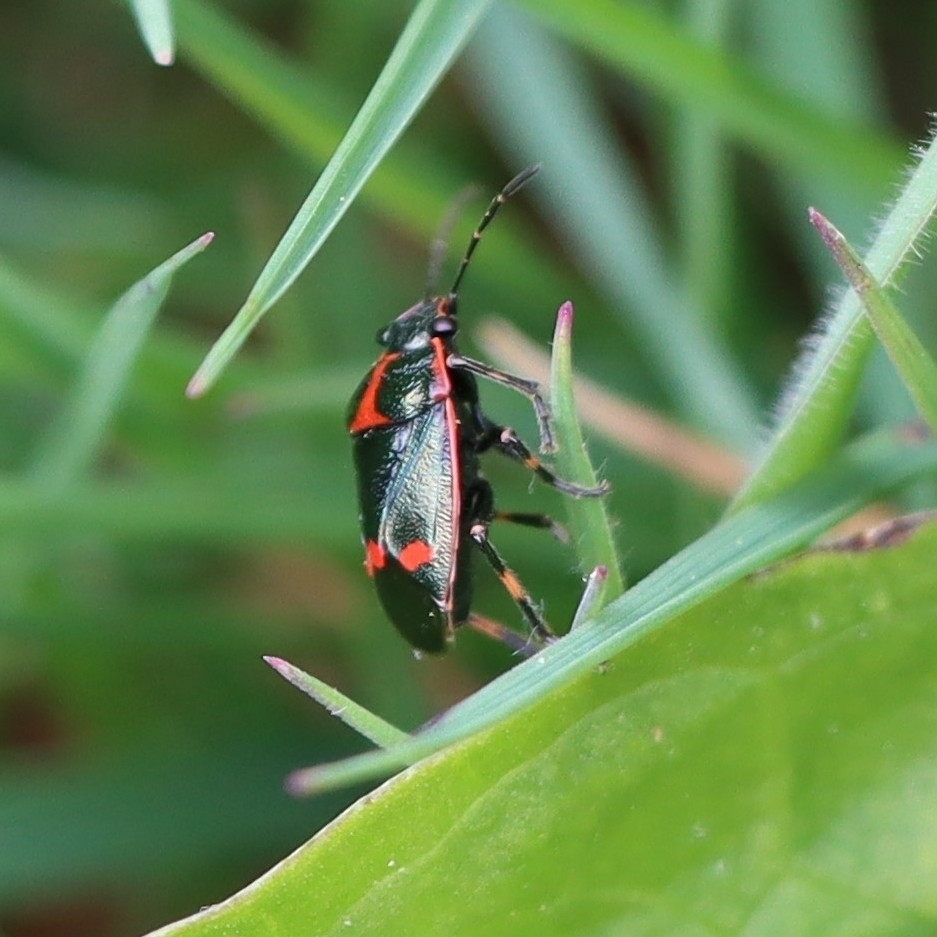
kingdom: Animalia
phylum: Arthropoda
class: Insecta
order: Hemiptera
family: Pentatomidae
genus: Eurydema
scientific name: Eurydema oleracea
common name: Cabbage bug
